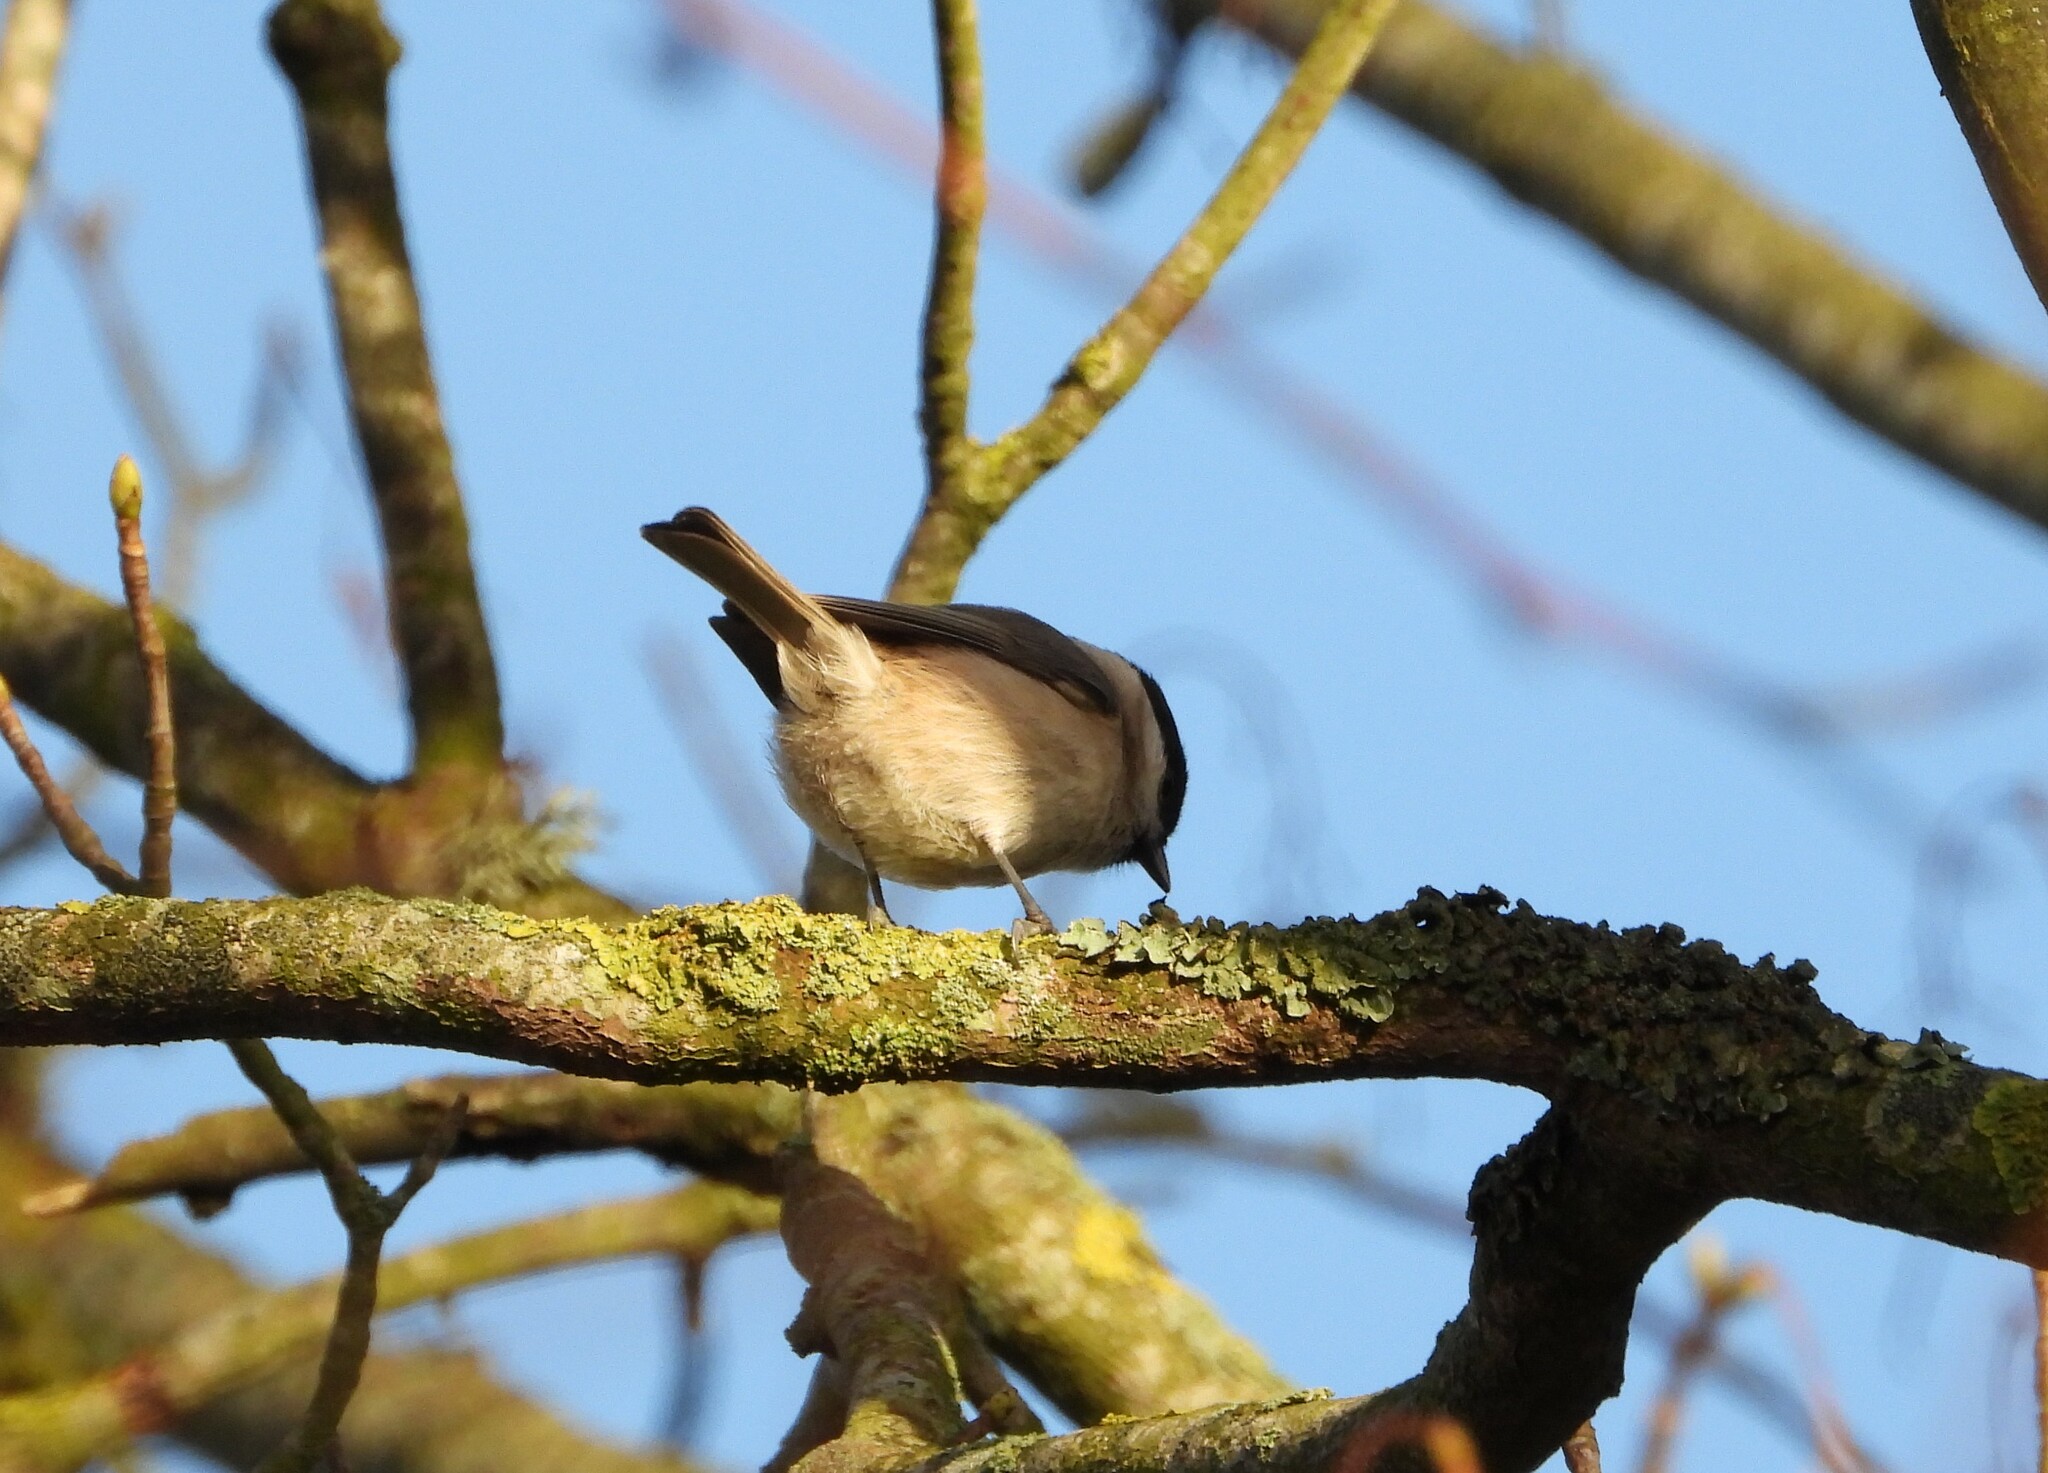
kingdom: Animalia
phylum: Chordata
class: Aves
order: Passeriformes
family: Paridae
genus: Poecile
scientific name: Poecile palustris
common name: Marsh tit
